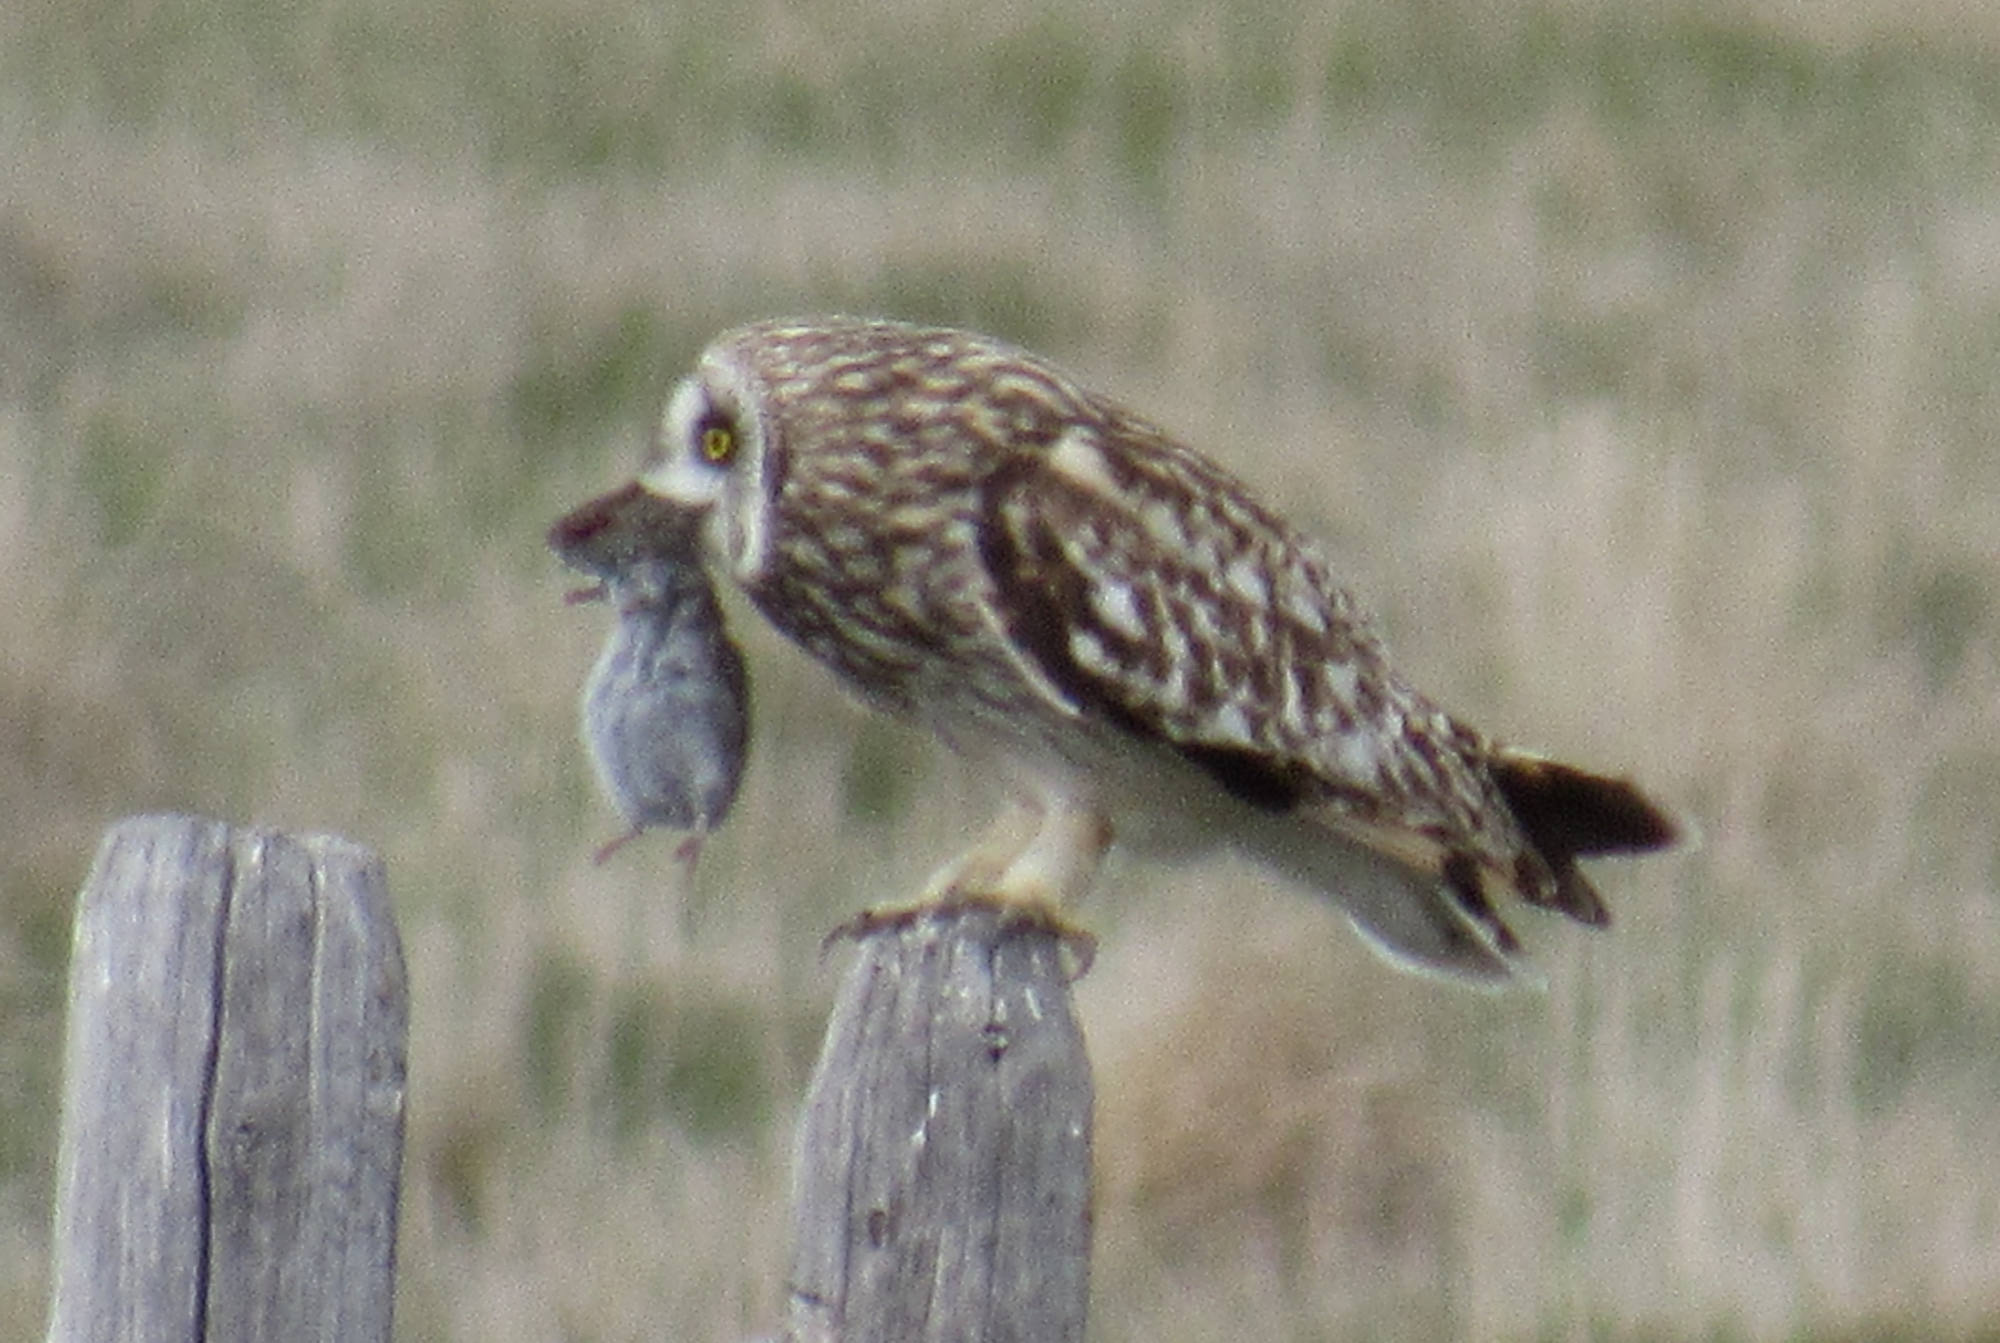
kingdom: Animalia
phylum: Chordata
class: Aves
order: Strigiformes
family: Strigidae
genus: Asio
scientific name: Asio flammeus
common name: Short-eared owl
